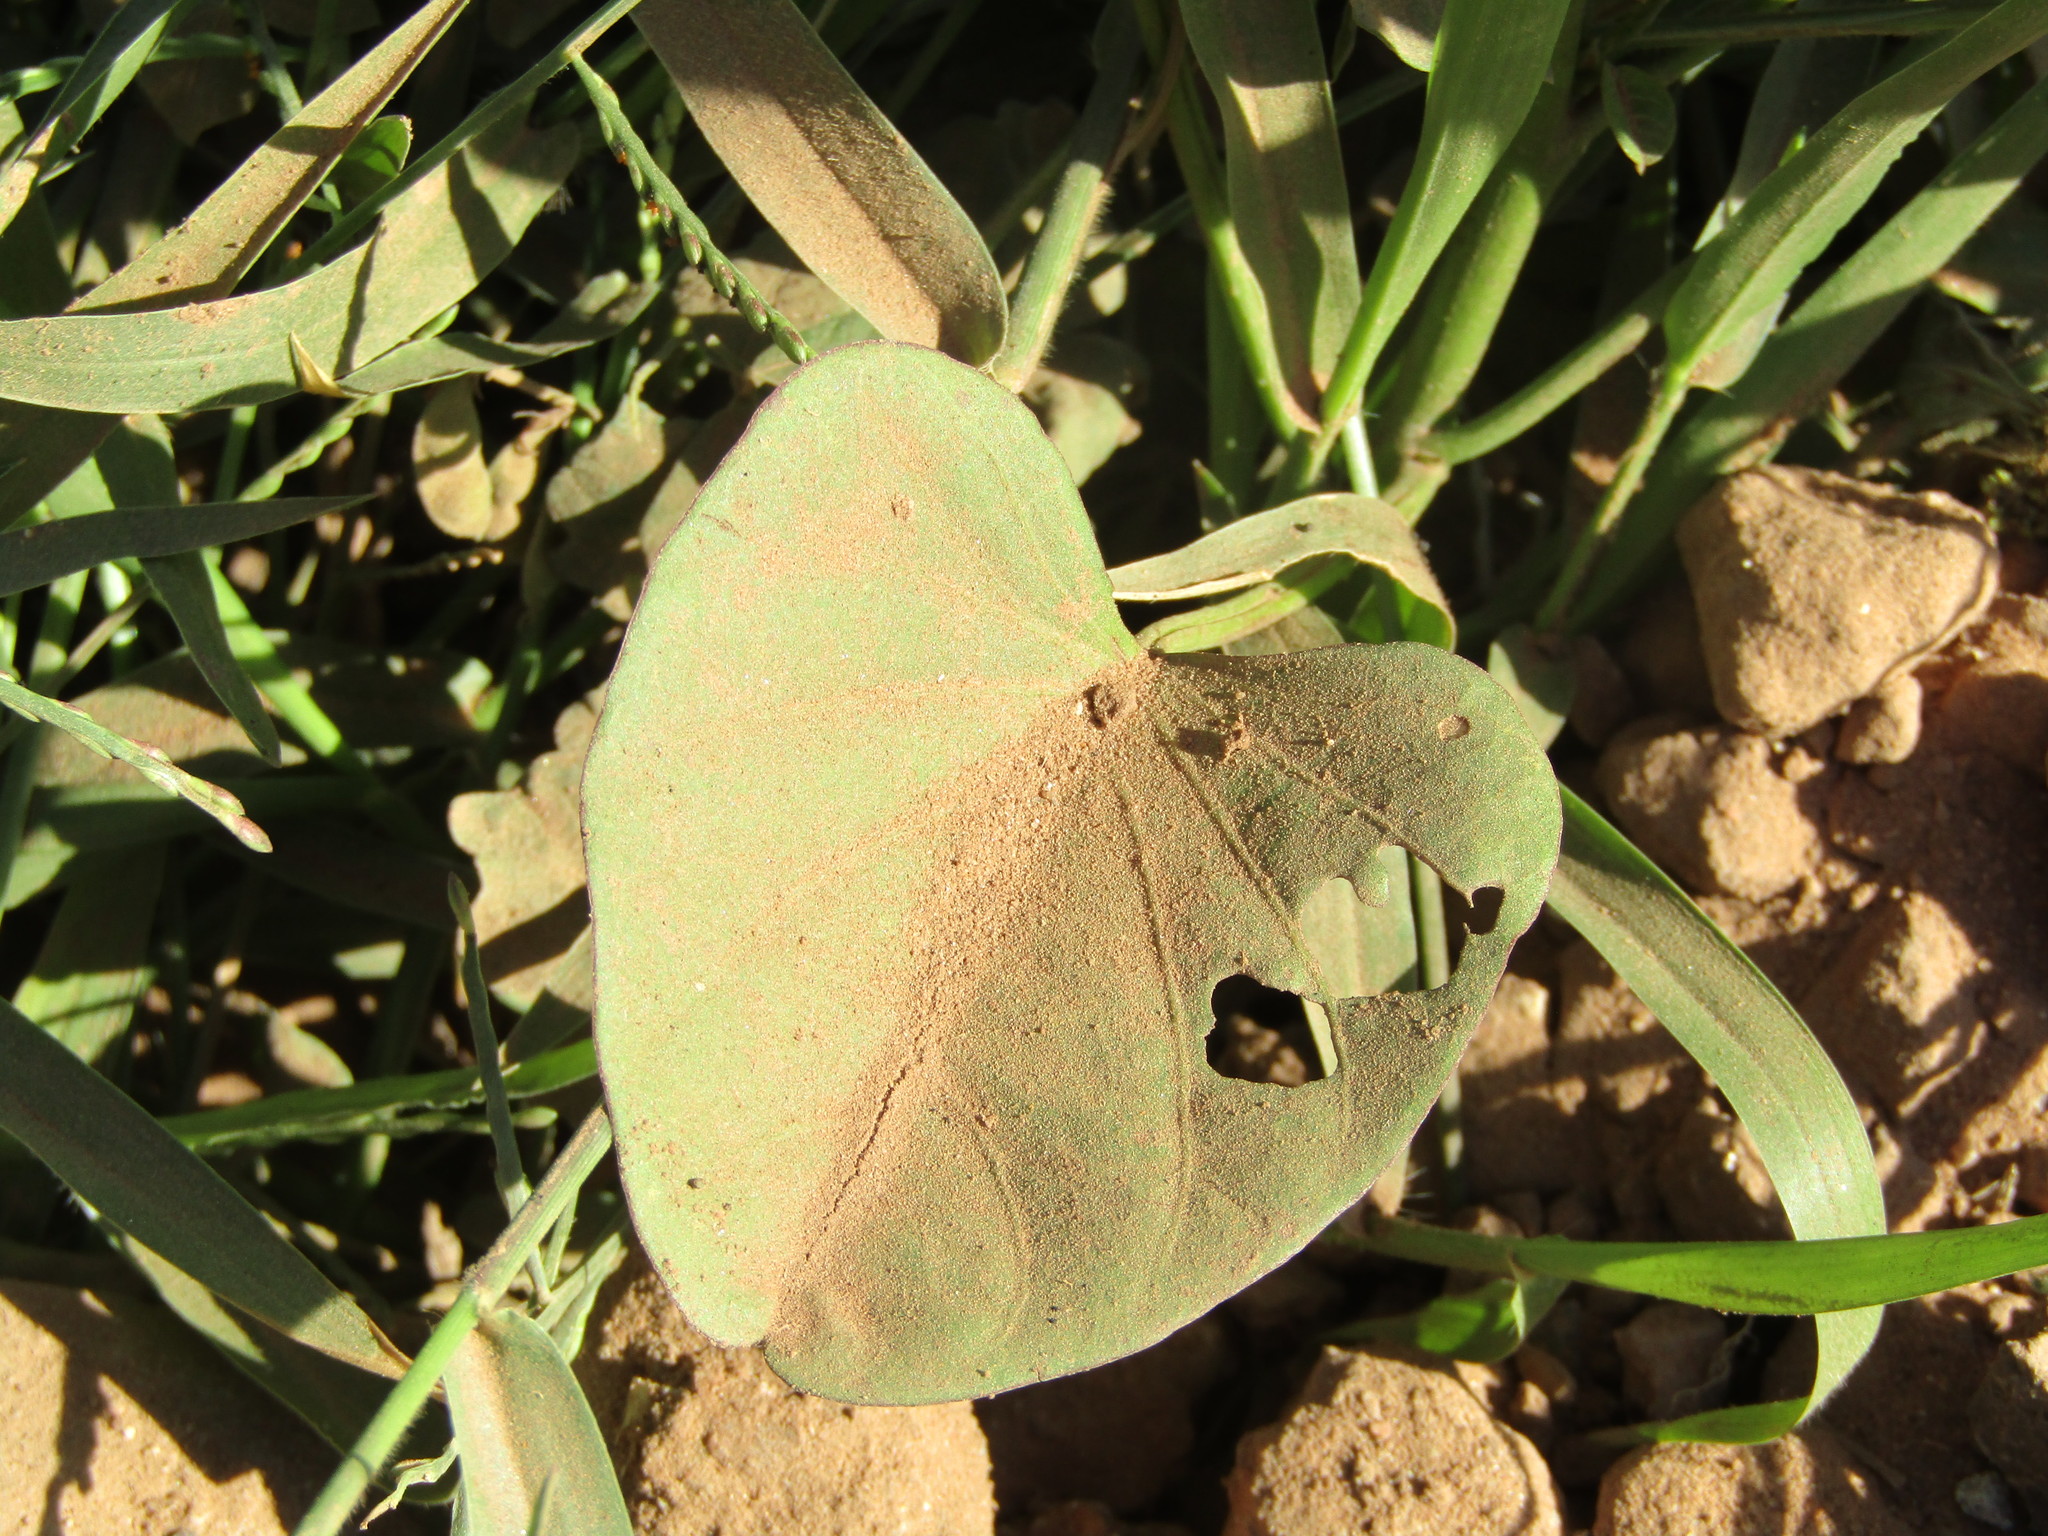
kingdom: Plantae
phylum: Tracheophyta
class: Magnoliopsida
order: Solanales
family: Convolvulaceae
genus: Ipomoea
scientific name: Ipomoea asarifolia
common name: Ginger-leaf morning-glory
